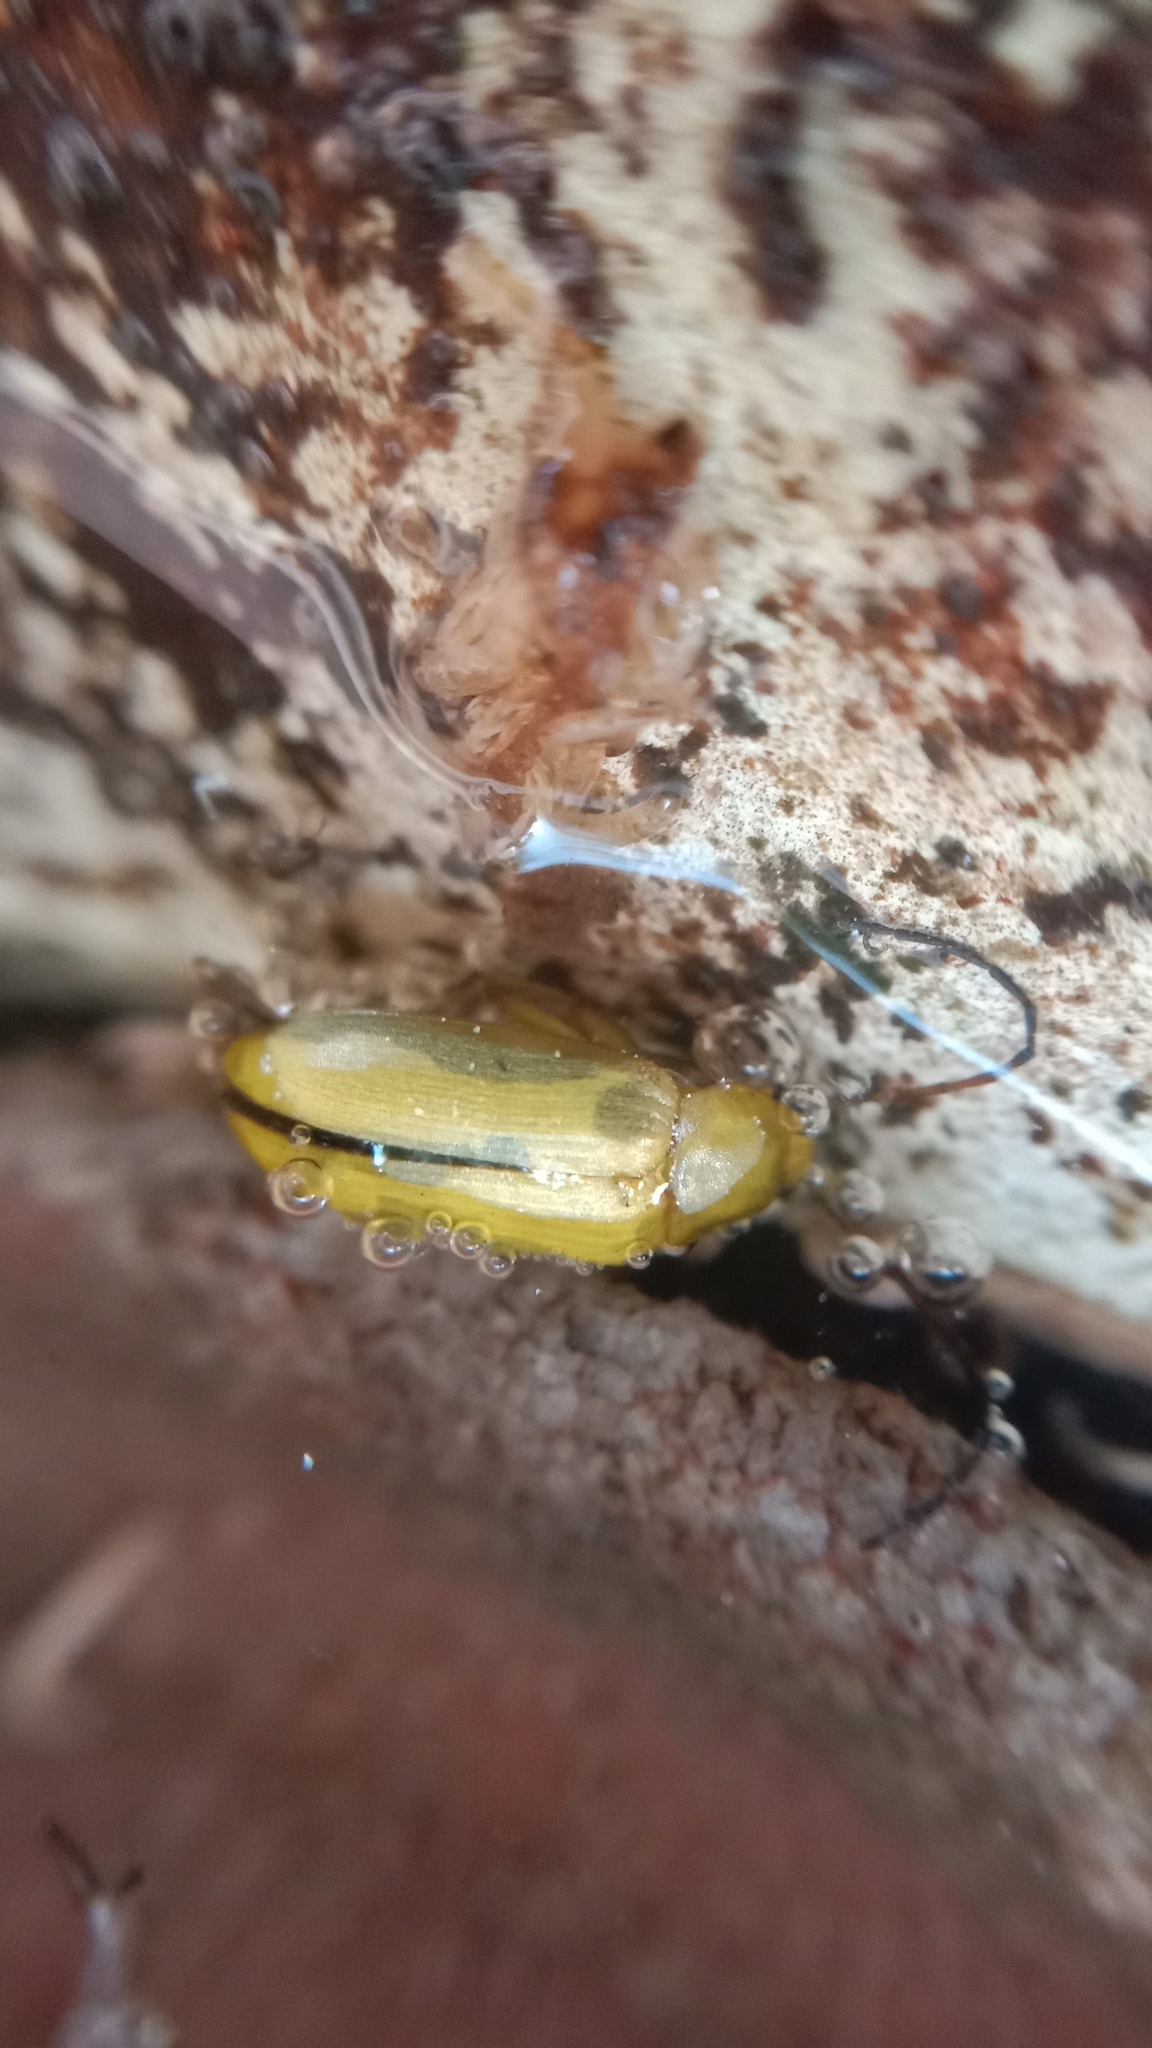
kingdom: Animalia
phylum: Arthropoda
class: Insecta
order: Coleoptera
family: Tenebrionidae
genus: Cteniopus
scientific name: Cteniopus sulphureus
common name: Sulphur beetle
